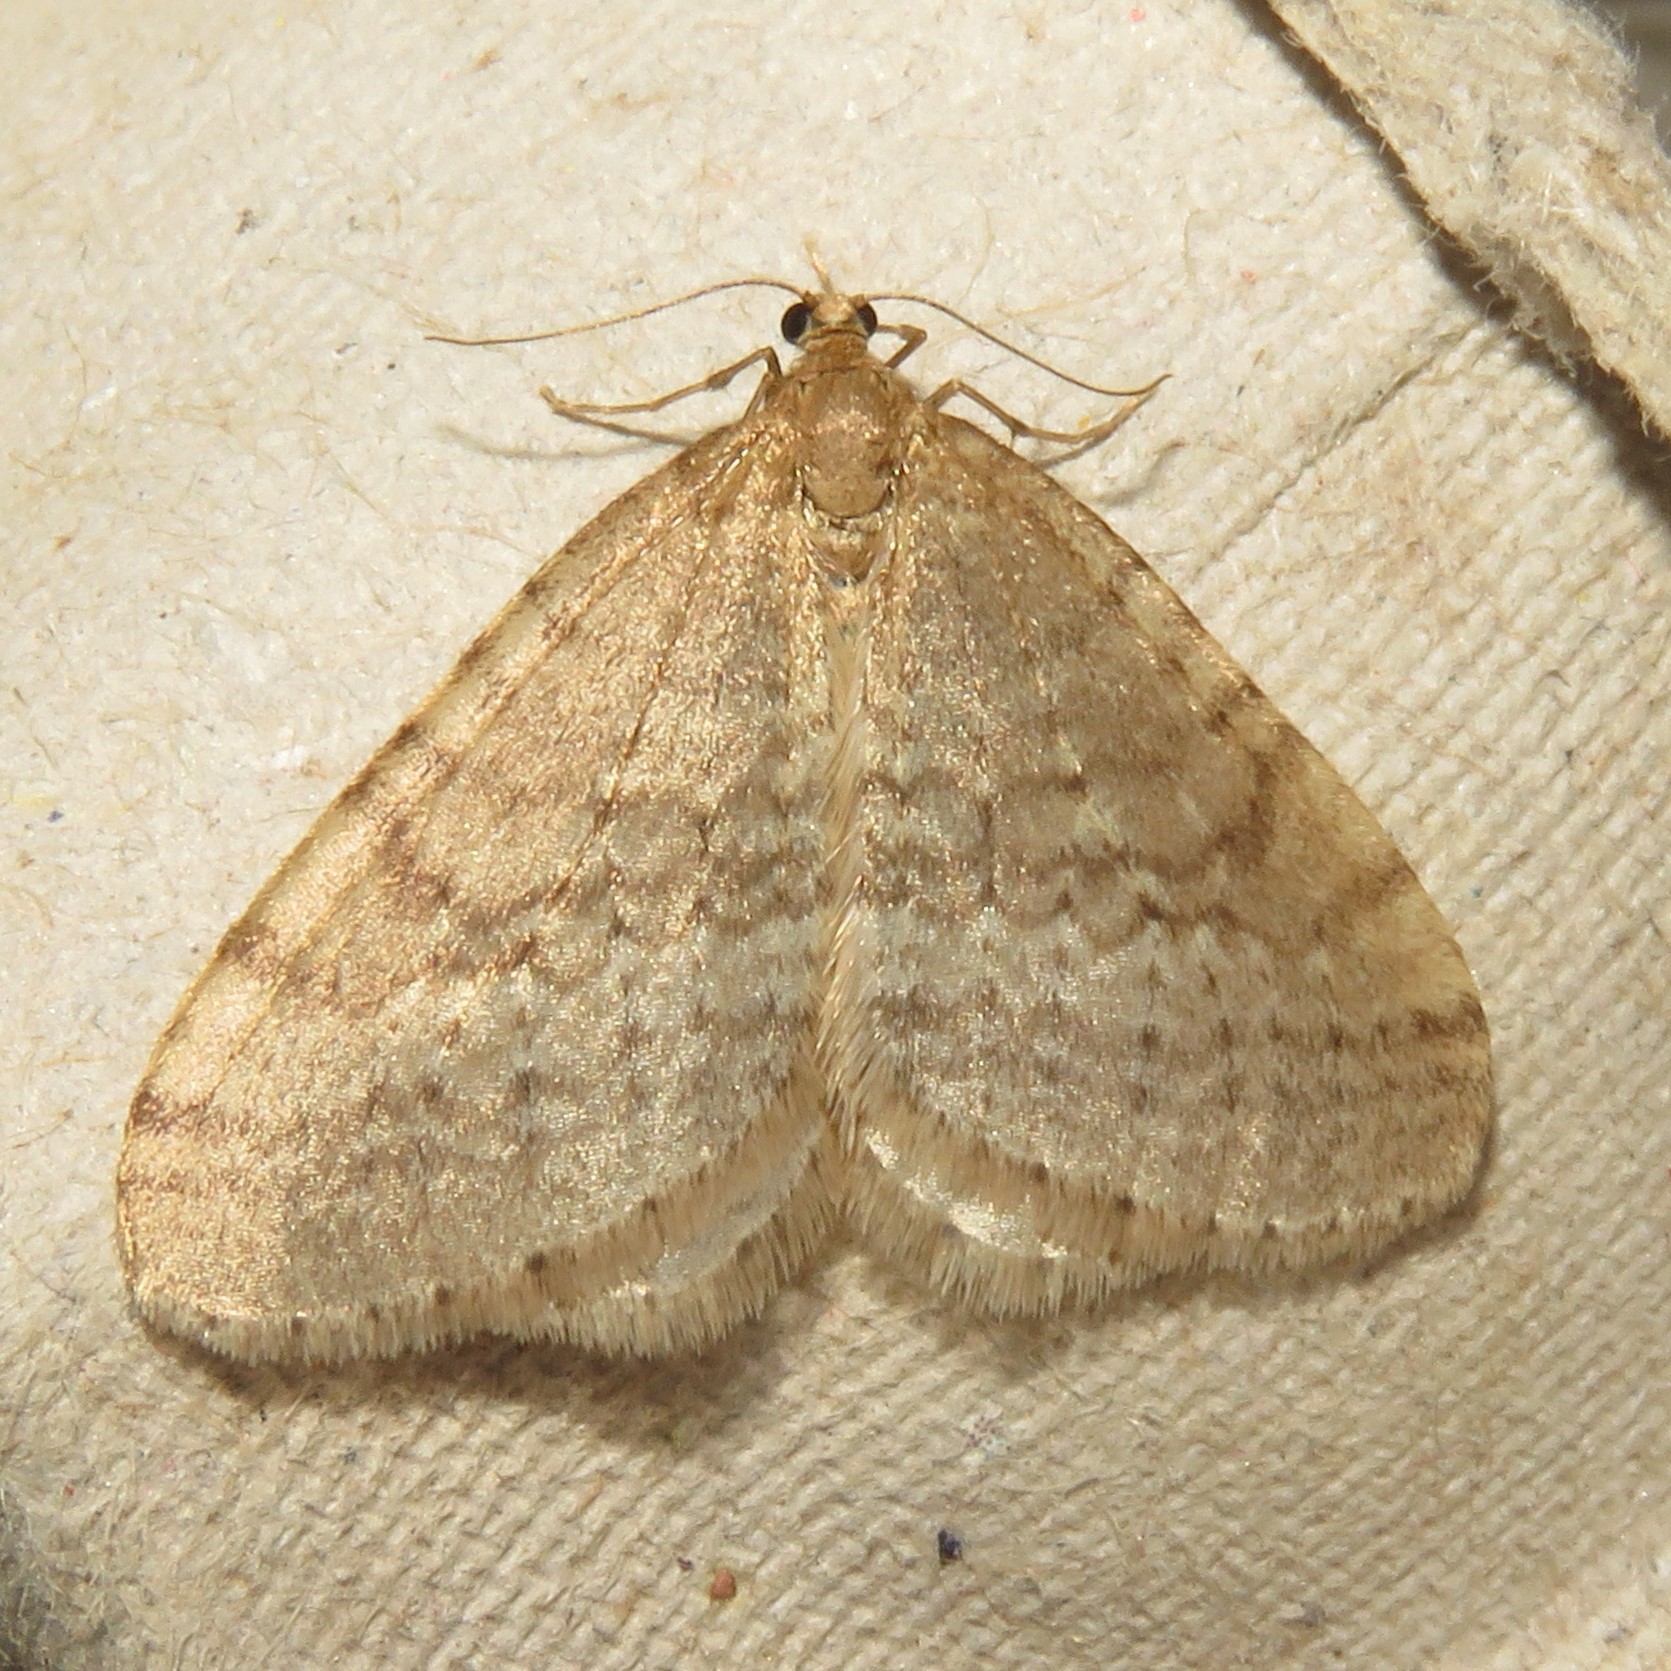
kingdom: Animalia
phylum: Arthropoda
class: Insecta
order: Lepidoptera
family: Geometridae
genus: Operophtera
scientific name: Operophtera bruceata
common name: Bruce spanworm
